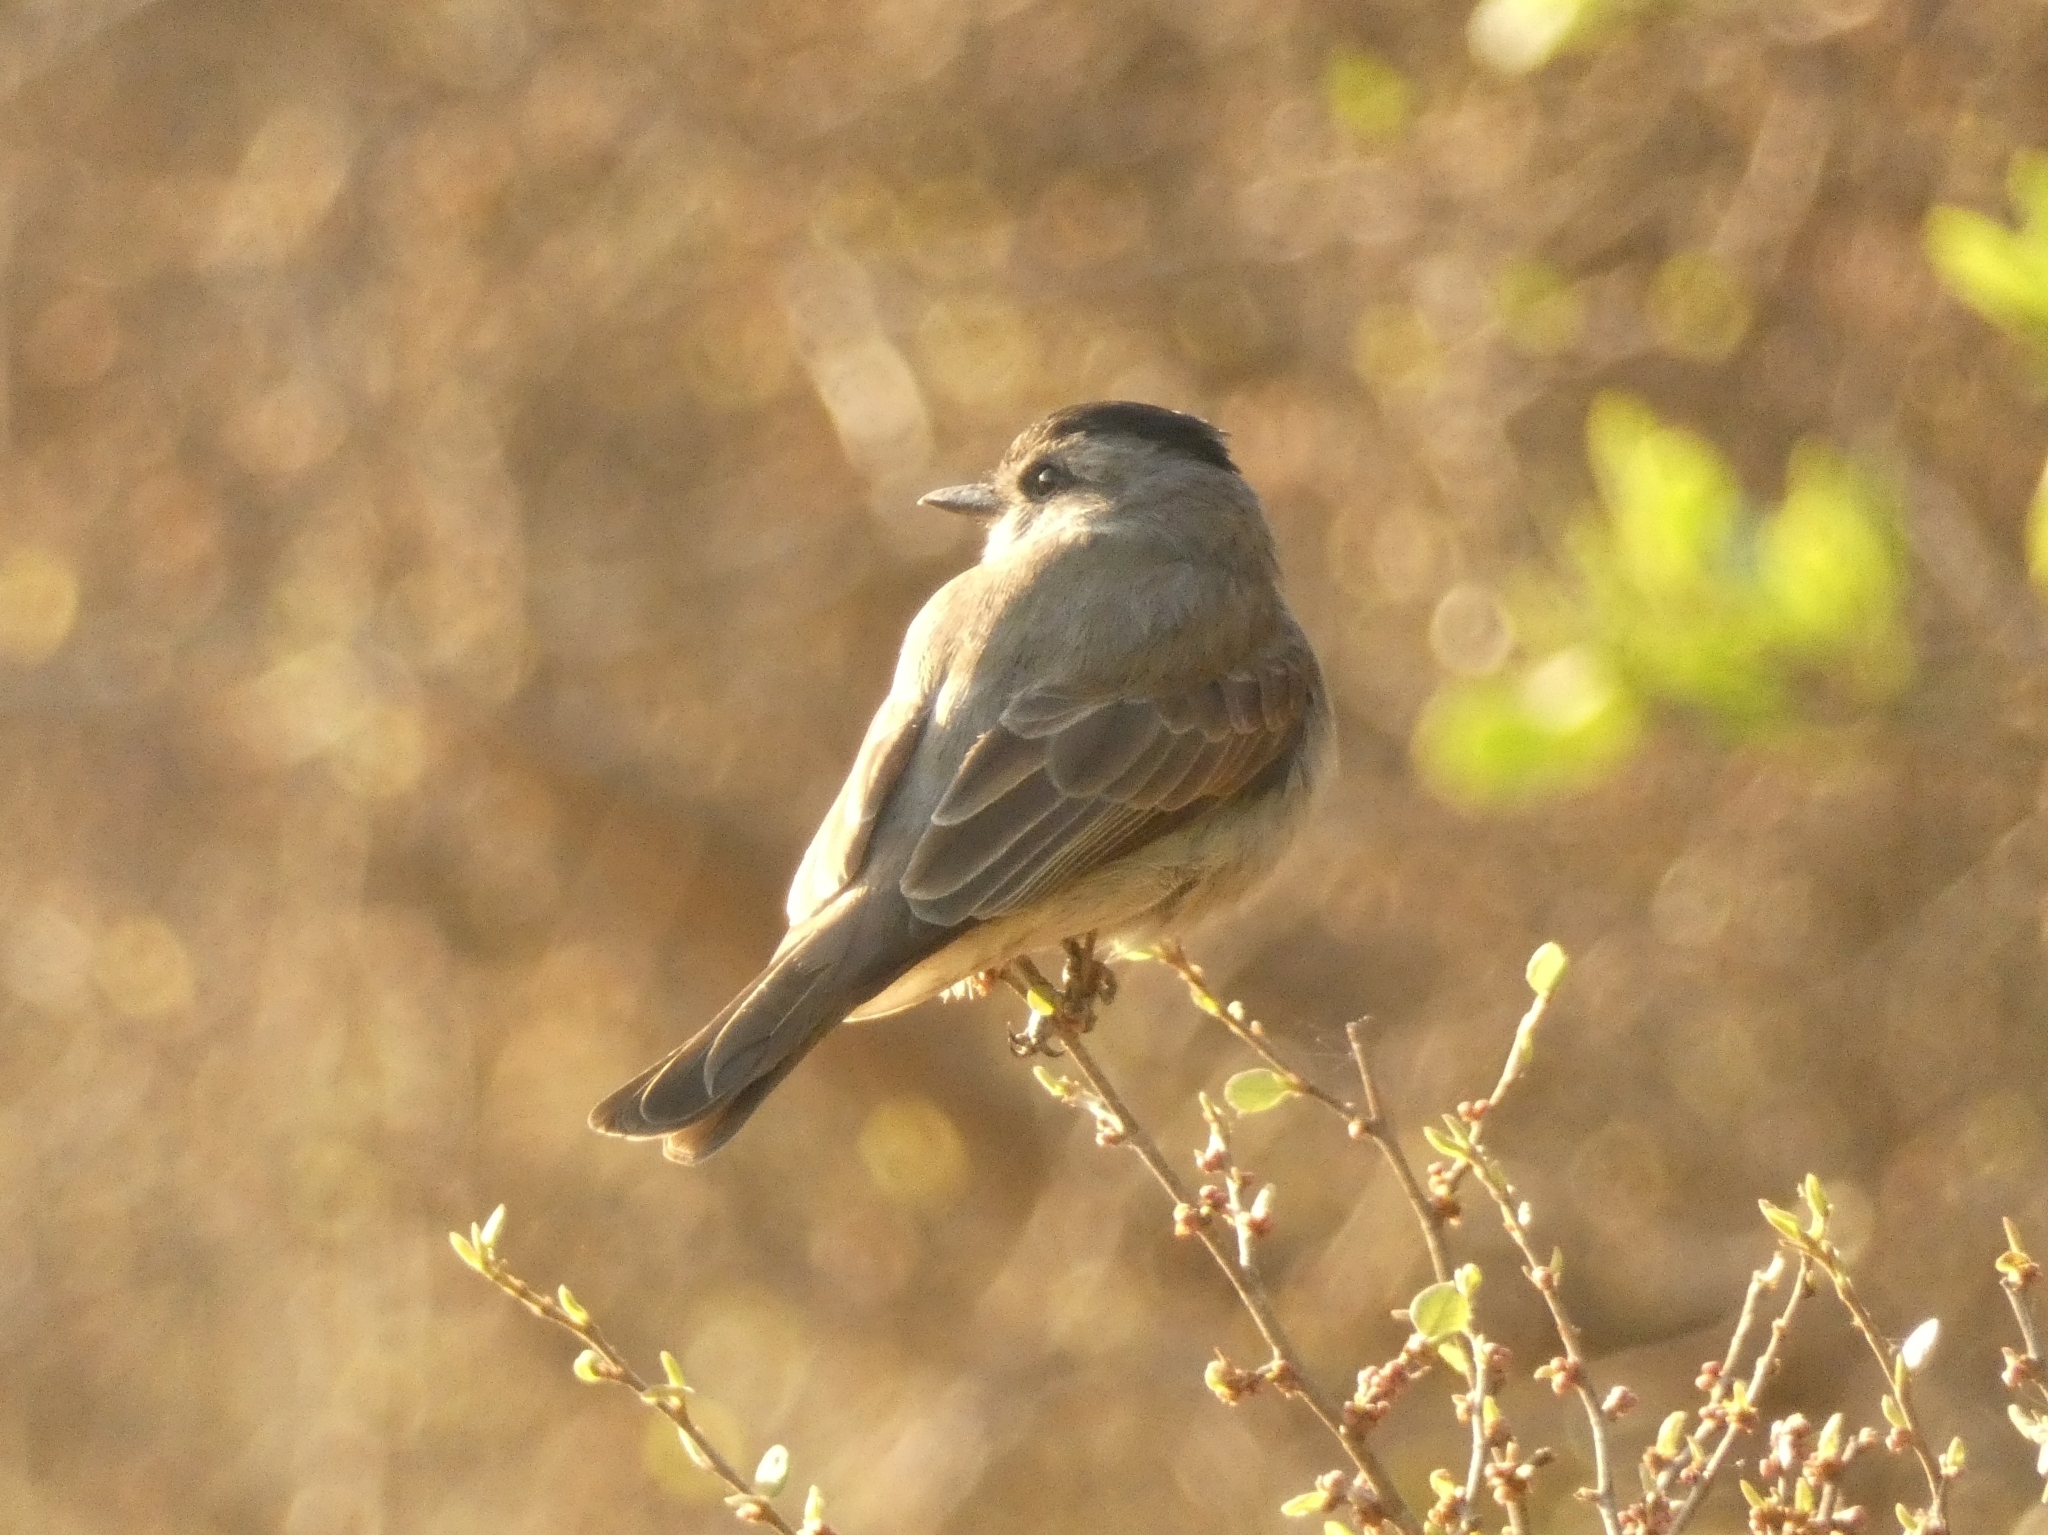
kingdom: Animalia
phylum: Chordata
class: Aves
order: Passeriformes
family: Tyrannidae
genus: Empidonomus
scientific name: Empidonomus aurantioatrocristatus
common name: Crowned slaty flycatcher
